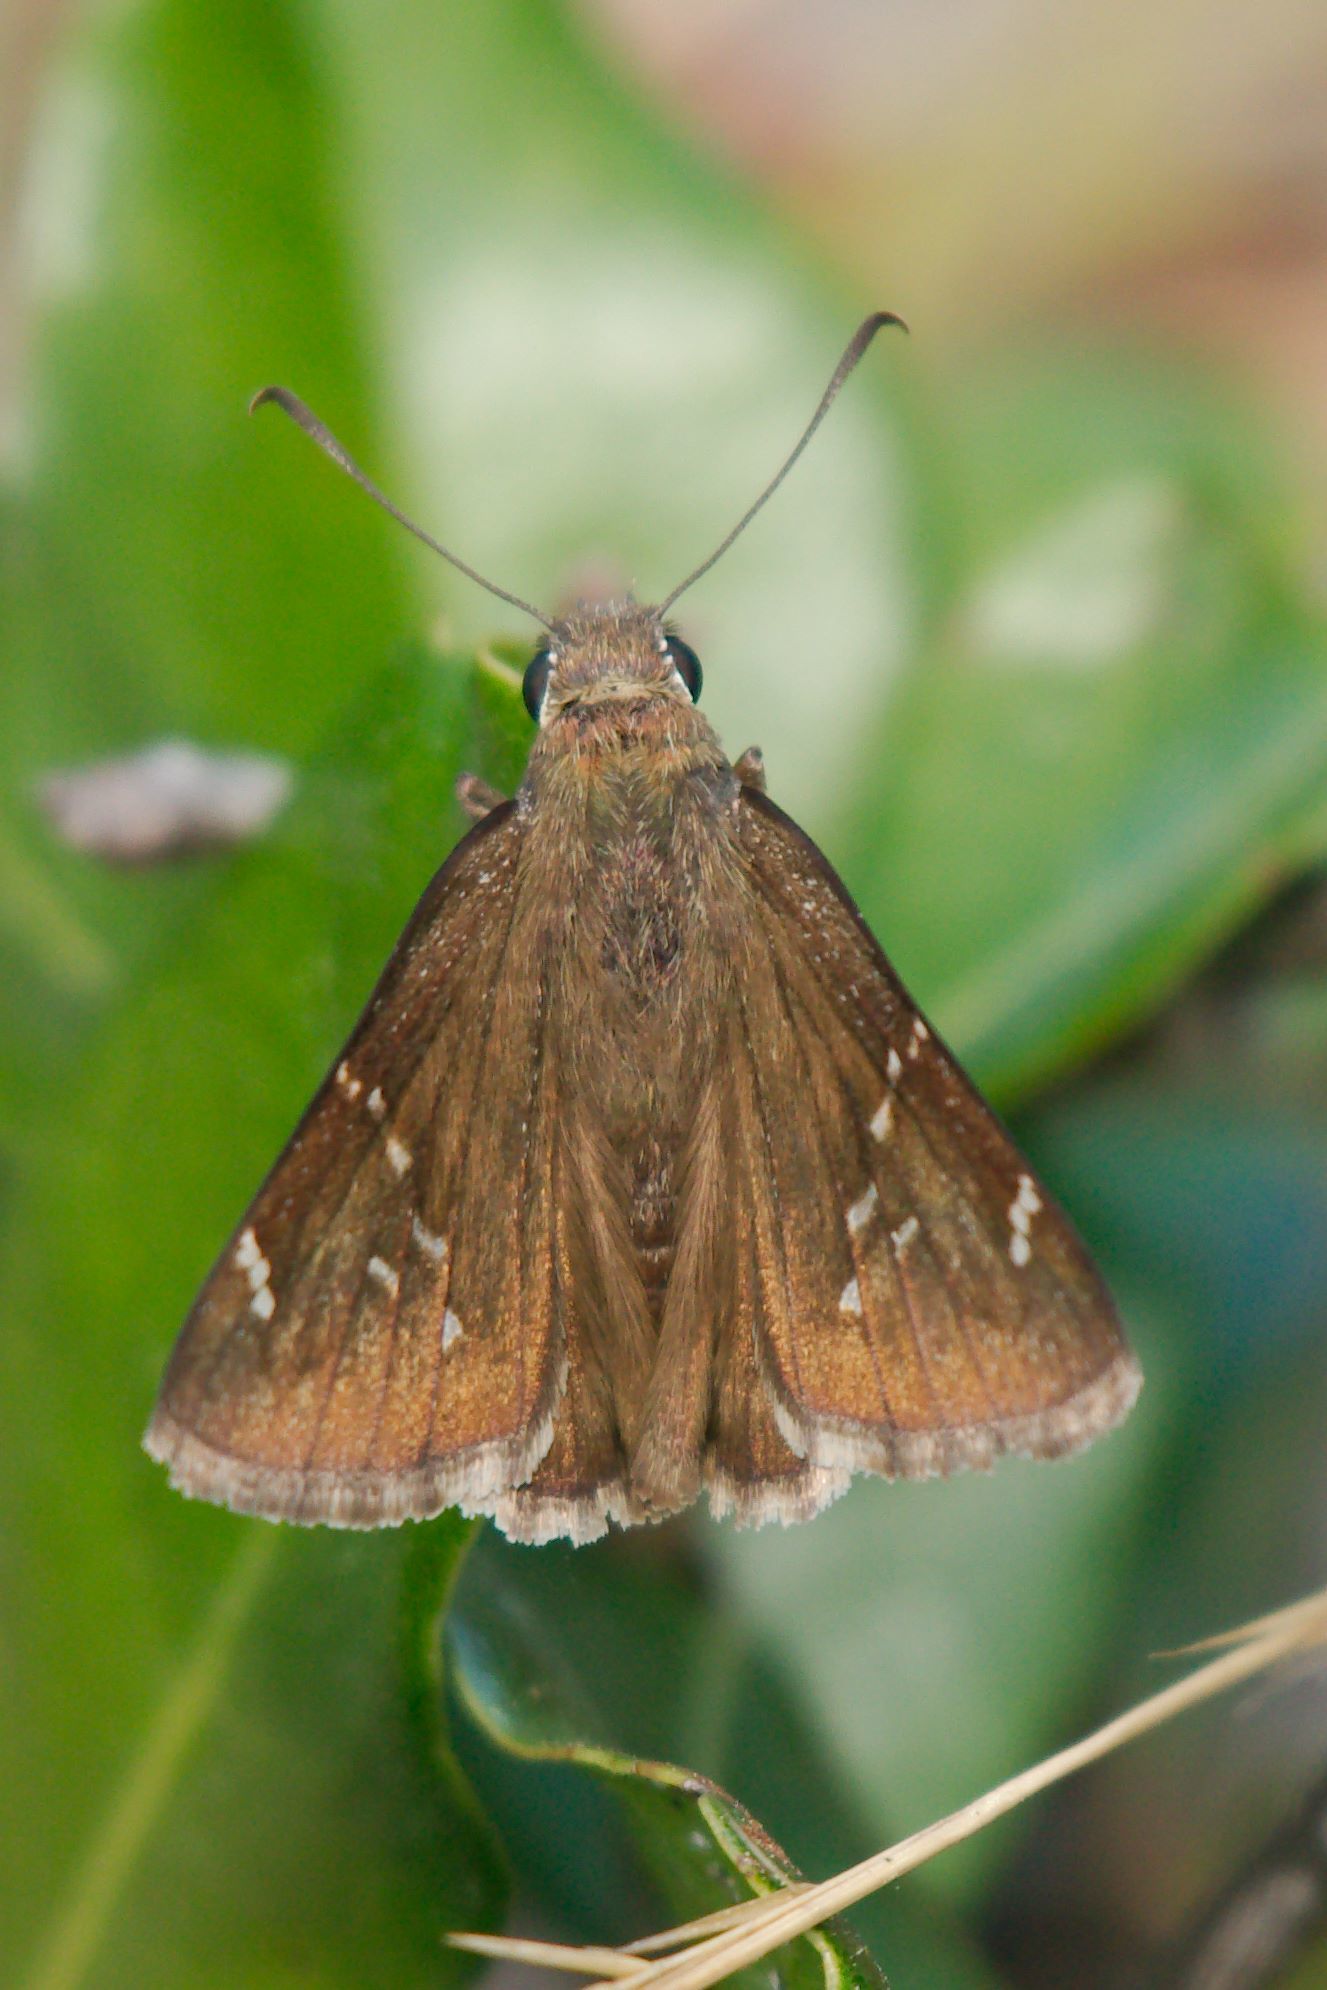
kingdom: Animalia
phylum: Arthropoda
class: Insecta
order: Lepidoptera
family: Hesperiidae
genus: Thorybes
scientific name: Thorybes mexicana
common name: Mexican cloudywing
